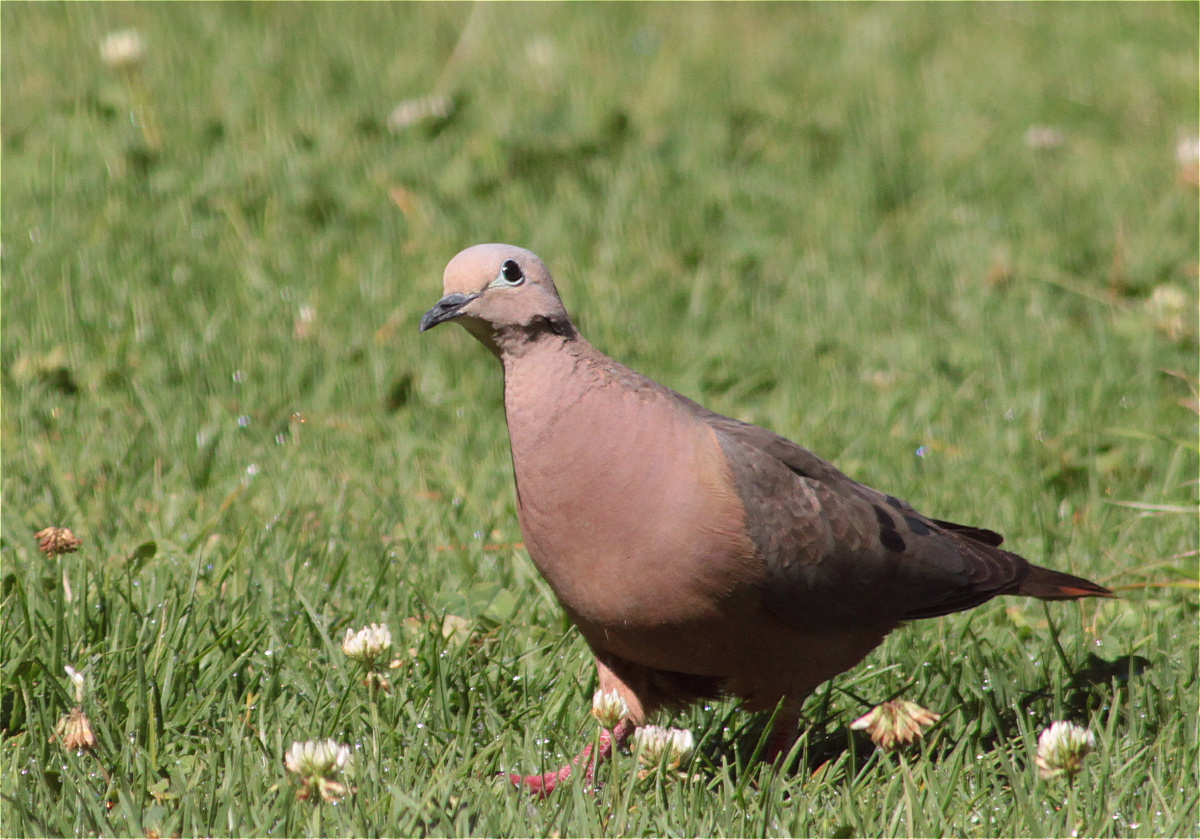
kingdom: Animalia
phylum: Chordata
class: Aves
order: Columbiformes
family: Columbidae
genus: Zenaida
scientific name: Zenaida auriculata
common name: Eared dove
